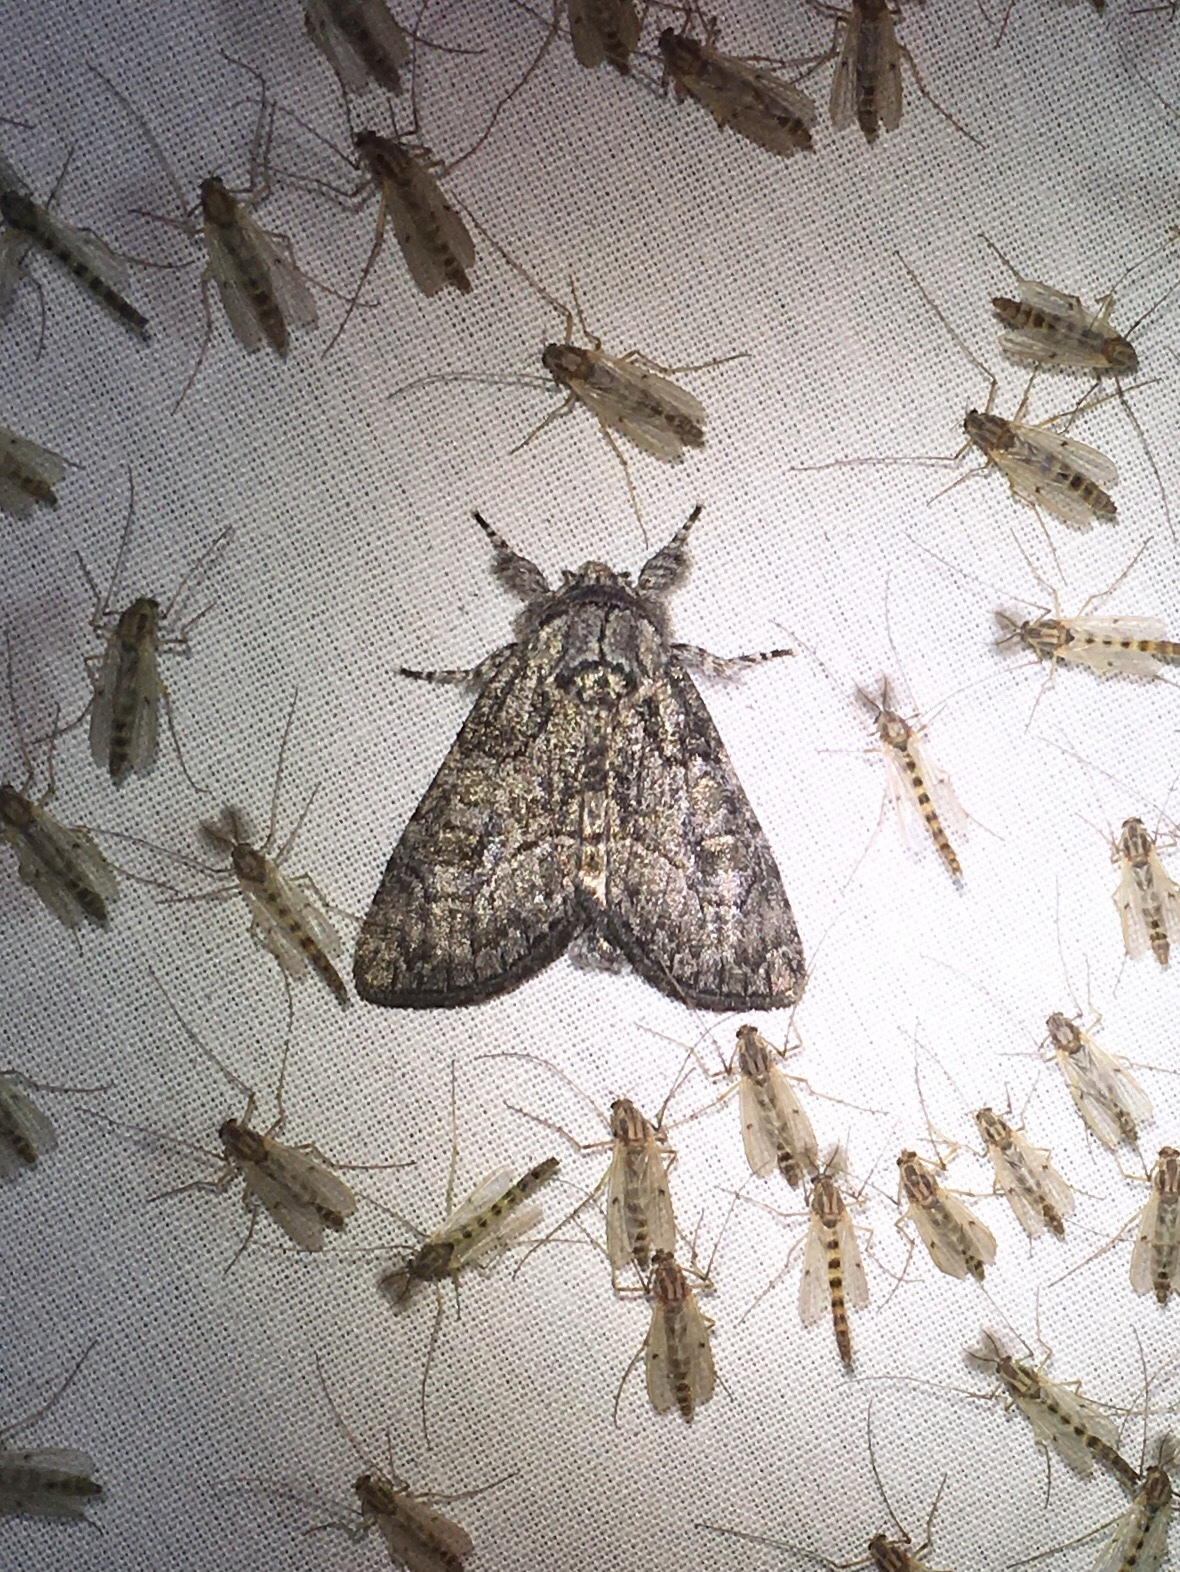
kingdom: Animalia
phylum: Arthropoda
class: Insecta
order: Lepidoptera
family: Noctuidae
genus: Raphia
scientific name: Raphia frater
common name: Brother
